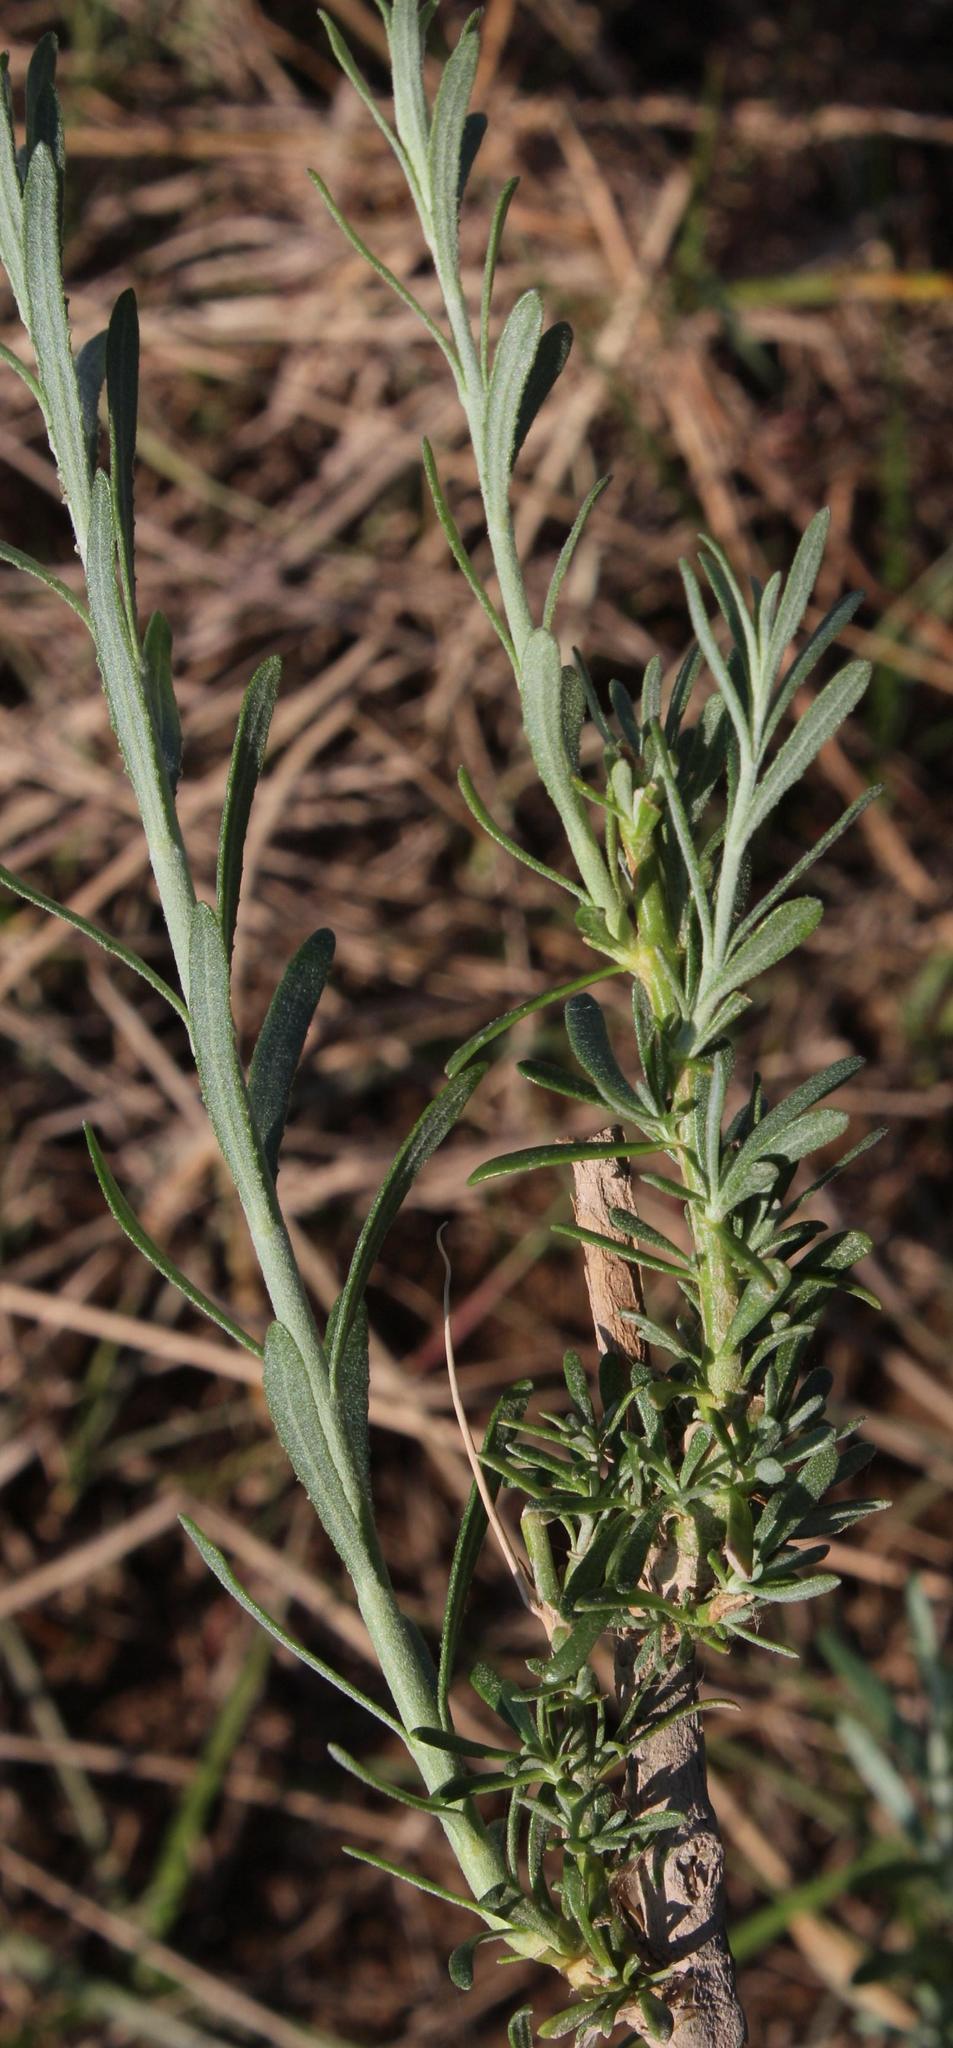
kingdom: Plantae
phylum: Tracheophyta
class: Magnoliopsida
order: Lamiales
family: Scrophulariaceae
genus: Buddleja
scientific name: Buddleja virgata
